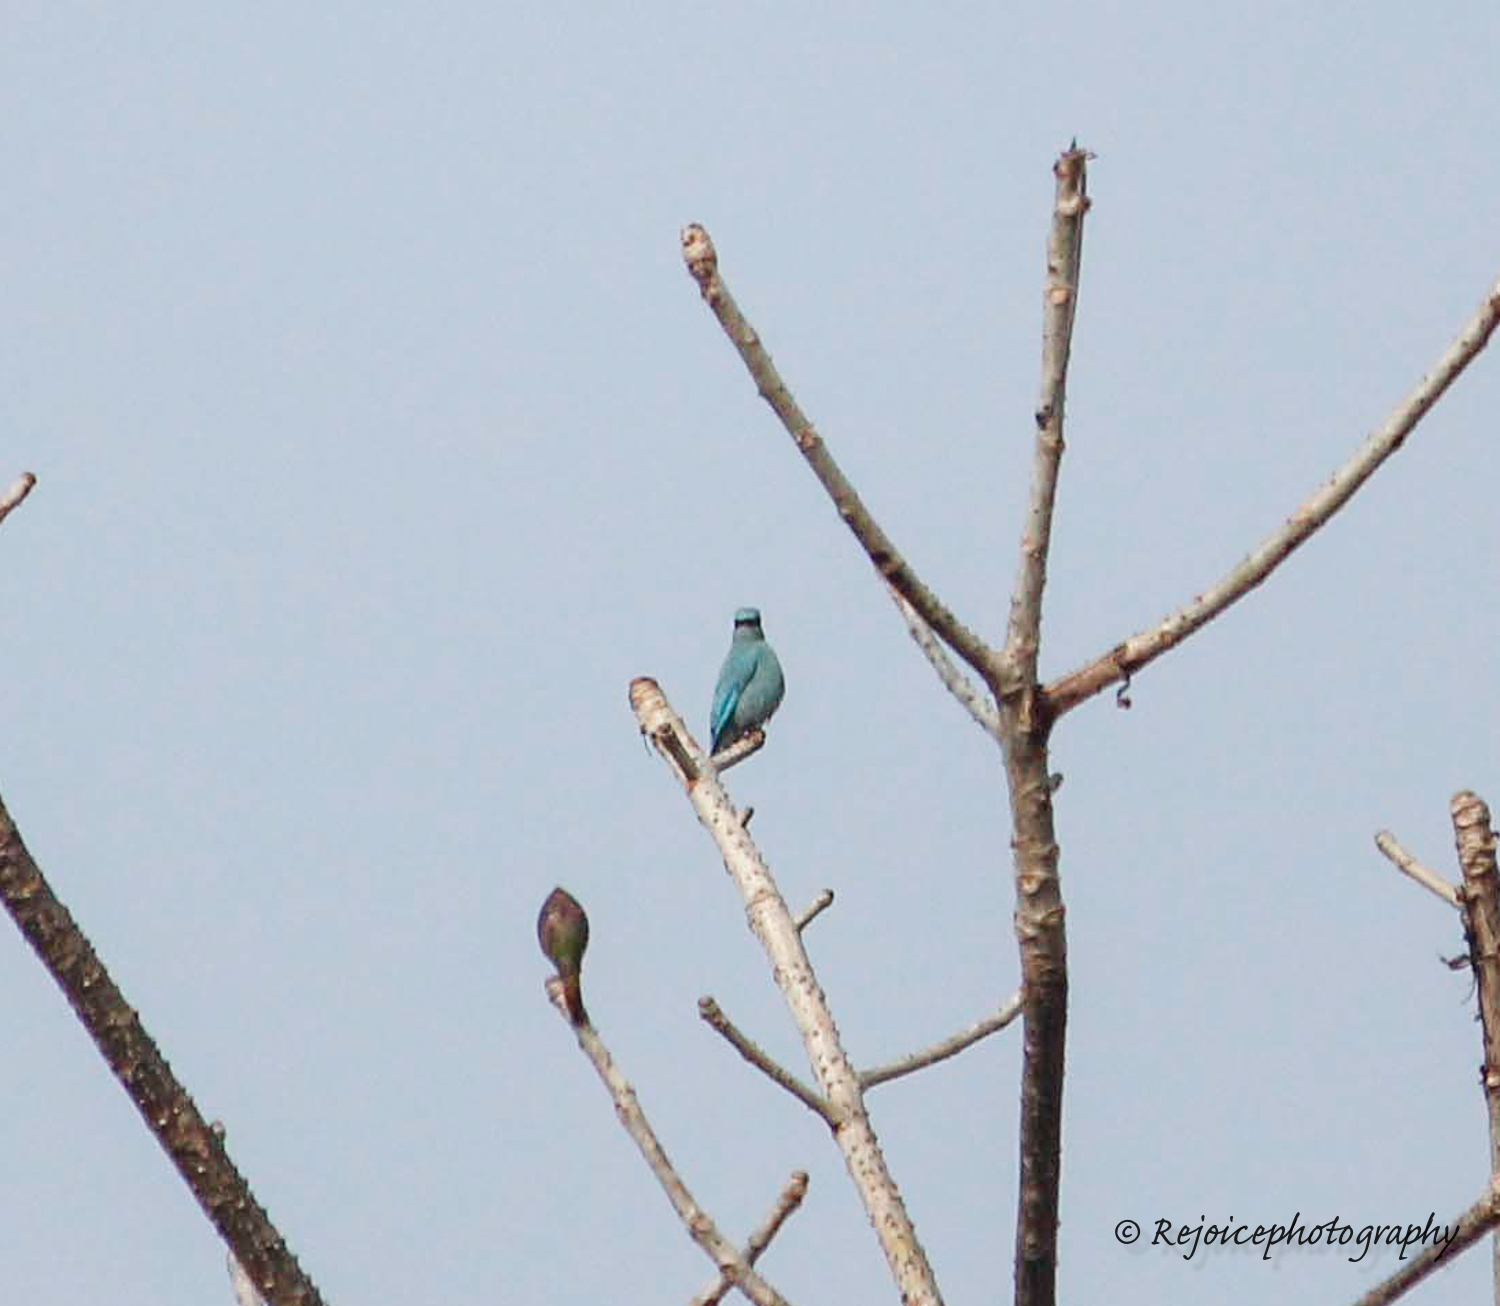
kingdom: Animalia
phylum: Chordata
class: Aves
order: Passeriformes
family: Muscicapidae
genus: Eumyias
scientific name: Eumyias thalassinus
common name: Verditer flycatcher
